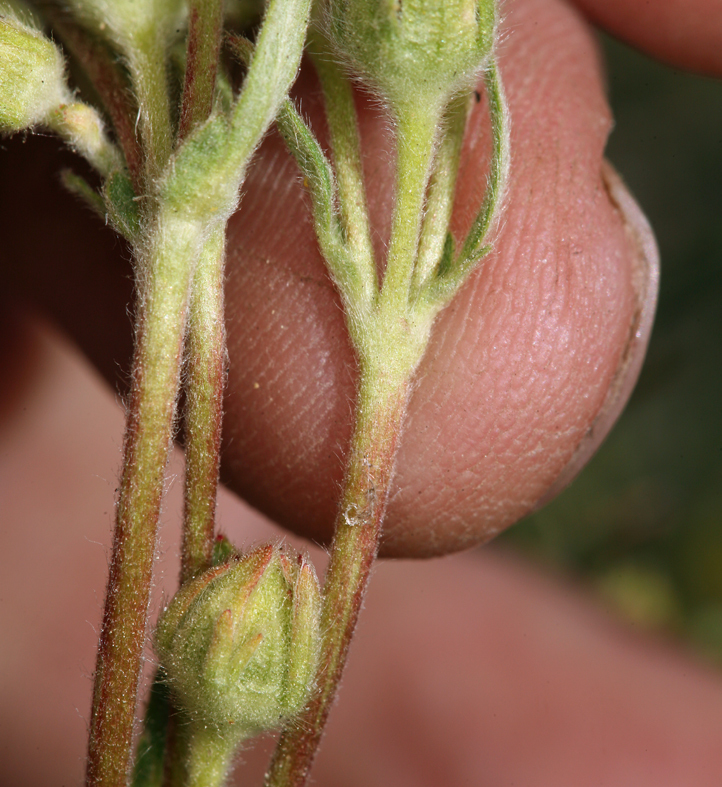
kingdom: Plantae
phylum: Tracheophyta
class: Magnoliopsida
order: Rosales
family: Rosaceae
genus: Potentilla
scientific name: Potentilla jepsonii
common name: Jepson's cinquefoil
